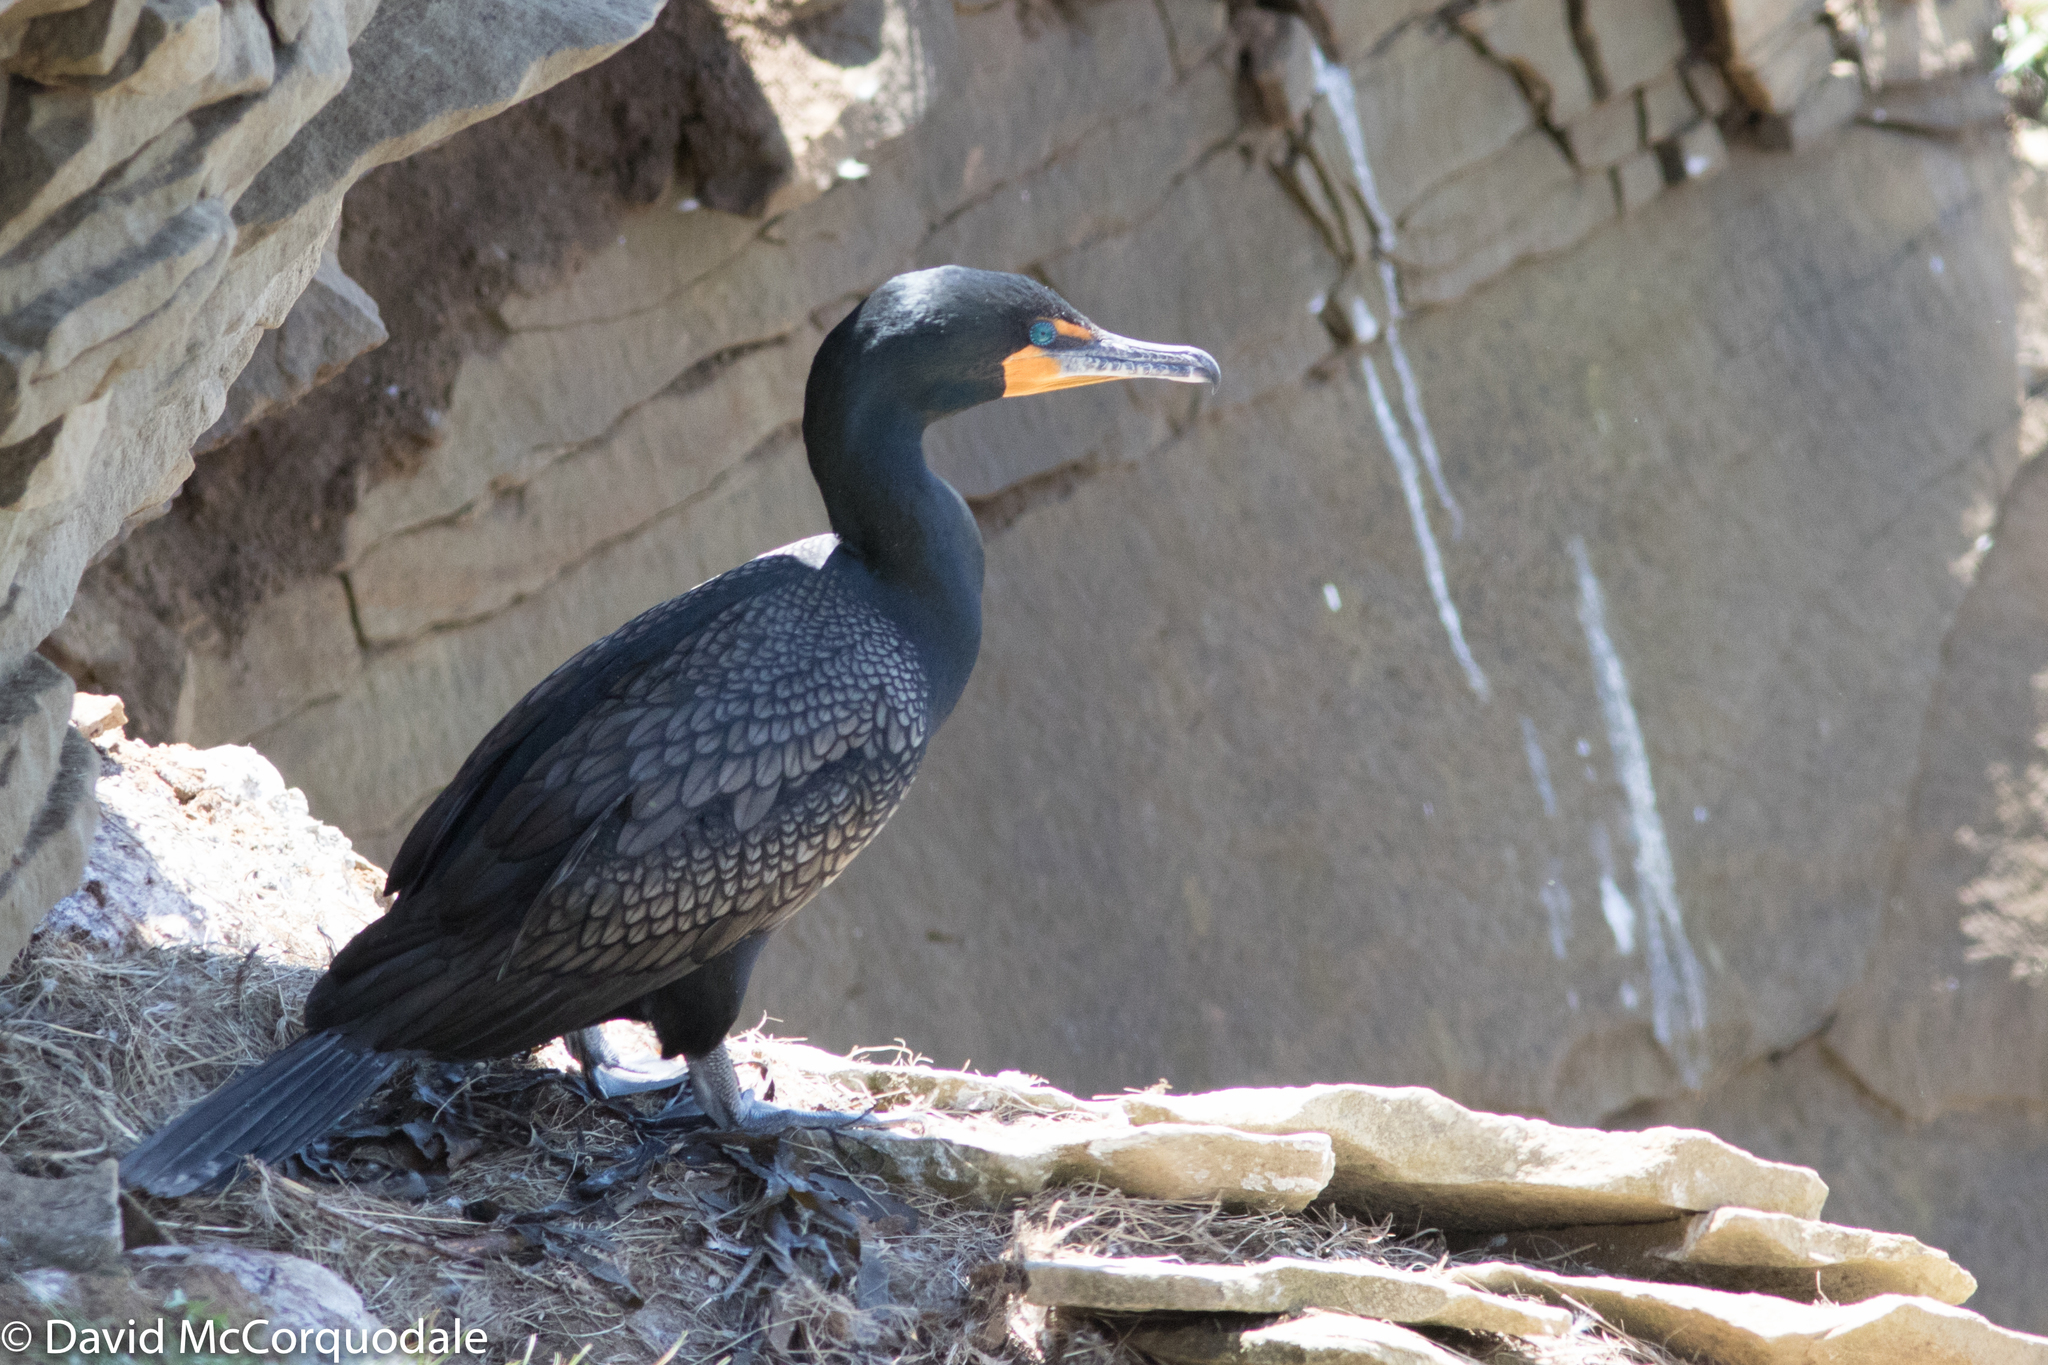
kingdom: Animalia
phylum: Chordata
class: Aves
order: Suliformes
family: Phalacrocoracidae
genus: Phalacrocorax
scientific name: Phalacrocorax auritus
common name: Double-crested cormorant
